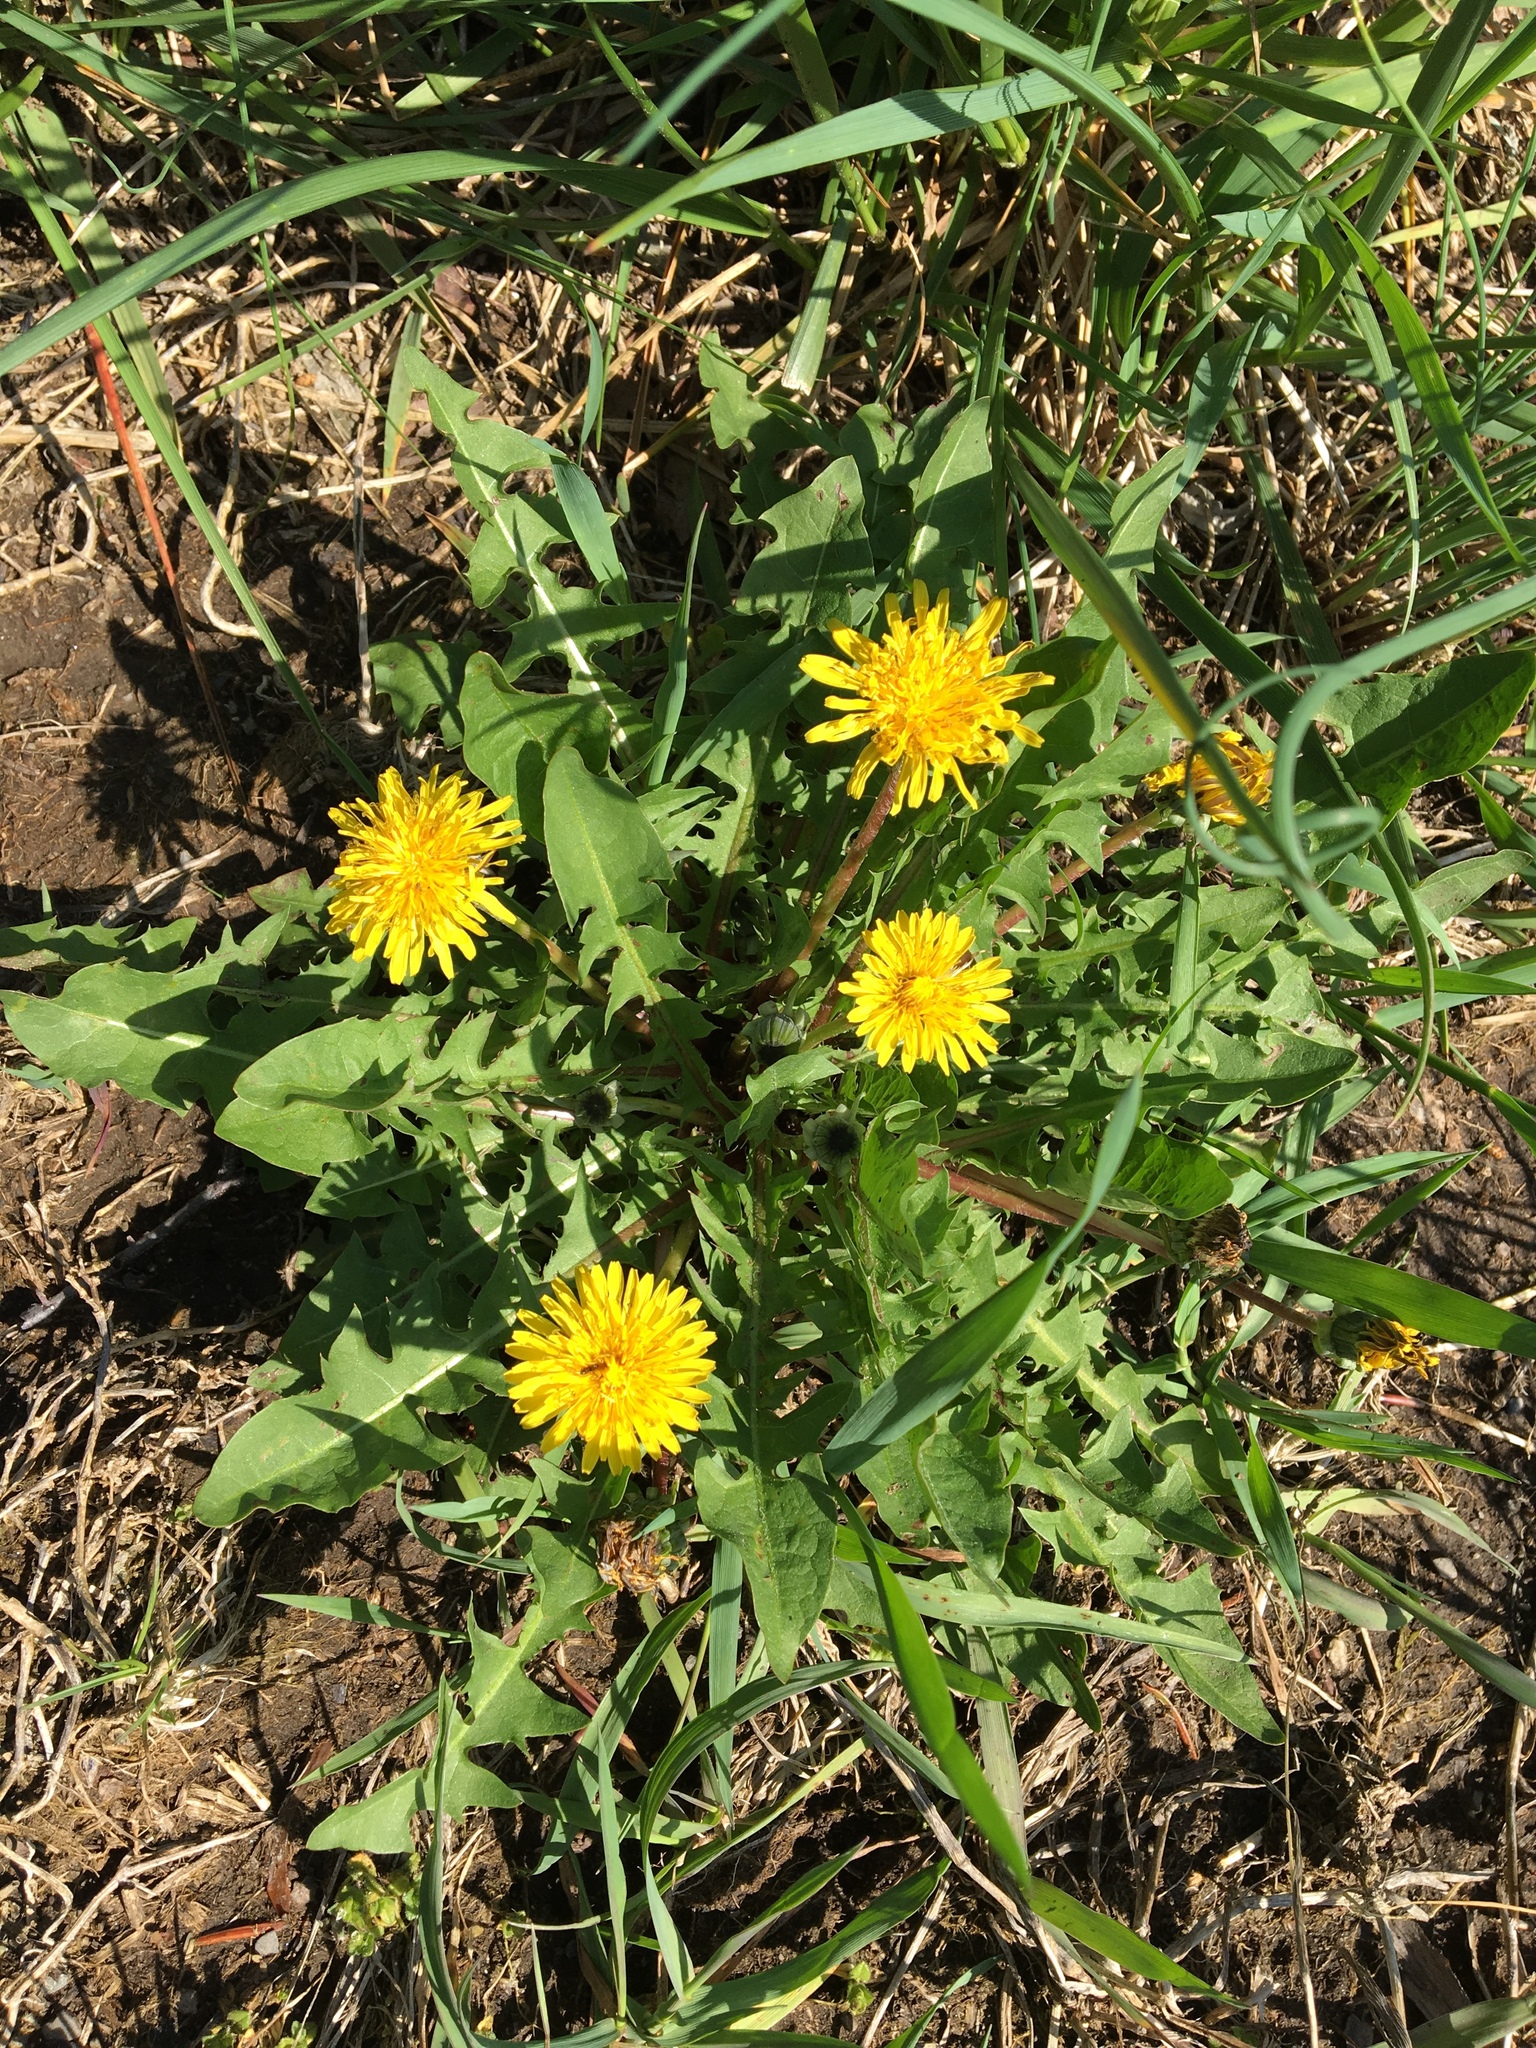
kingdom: Plantae
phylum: Tracheophyta
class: Magnoliopsida
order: Asterales
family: Asteraceae
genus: Taraxacum
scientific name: Taraxacum officinale
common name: Common dandelion
